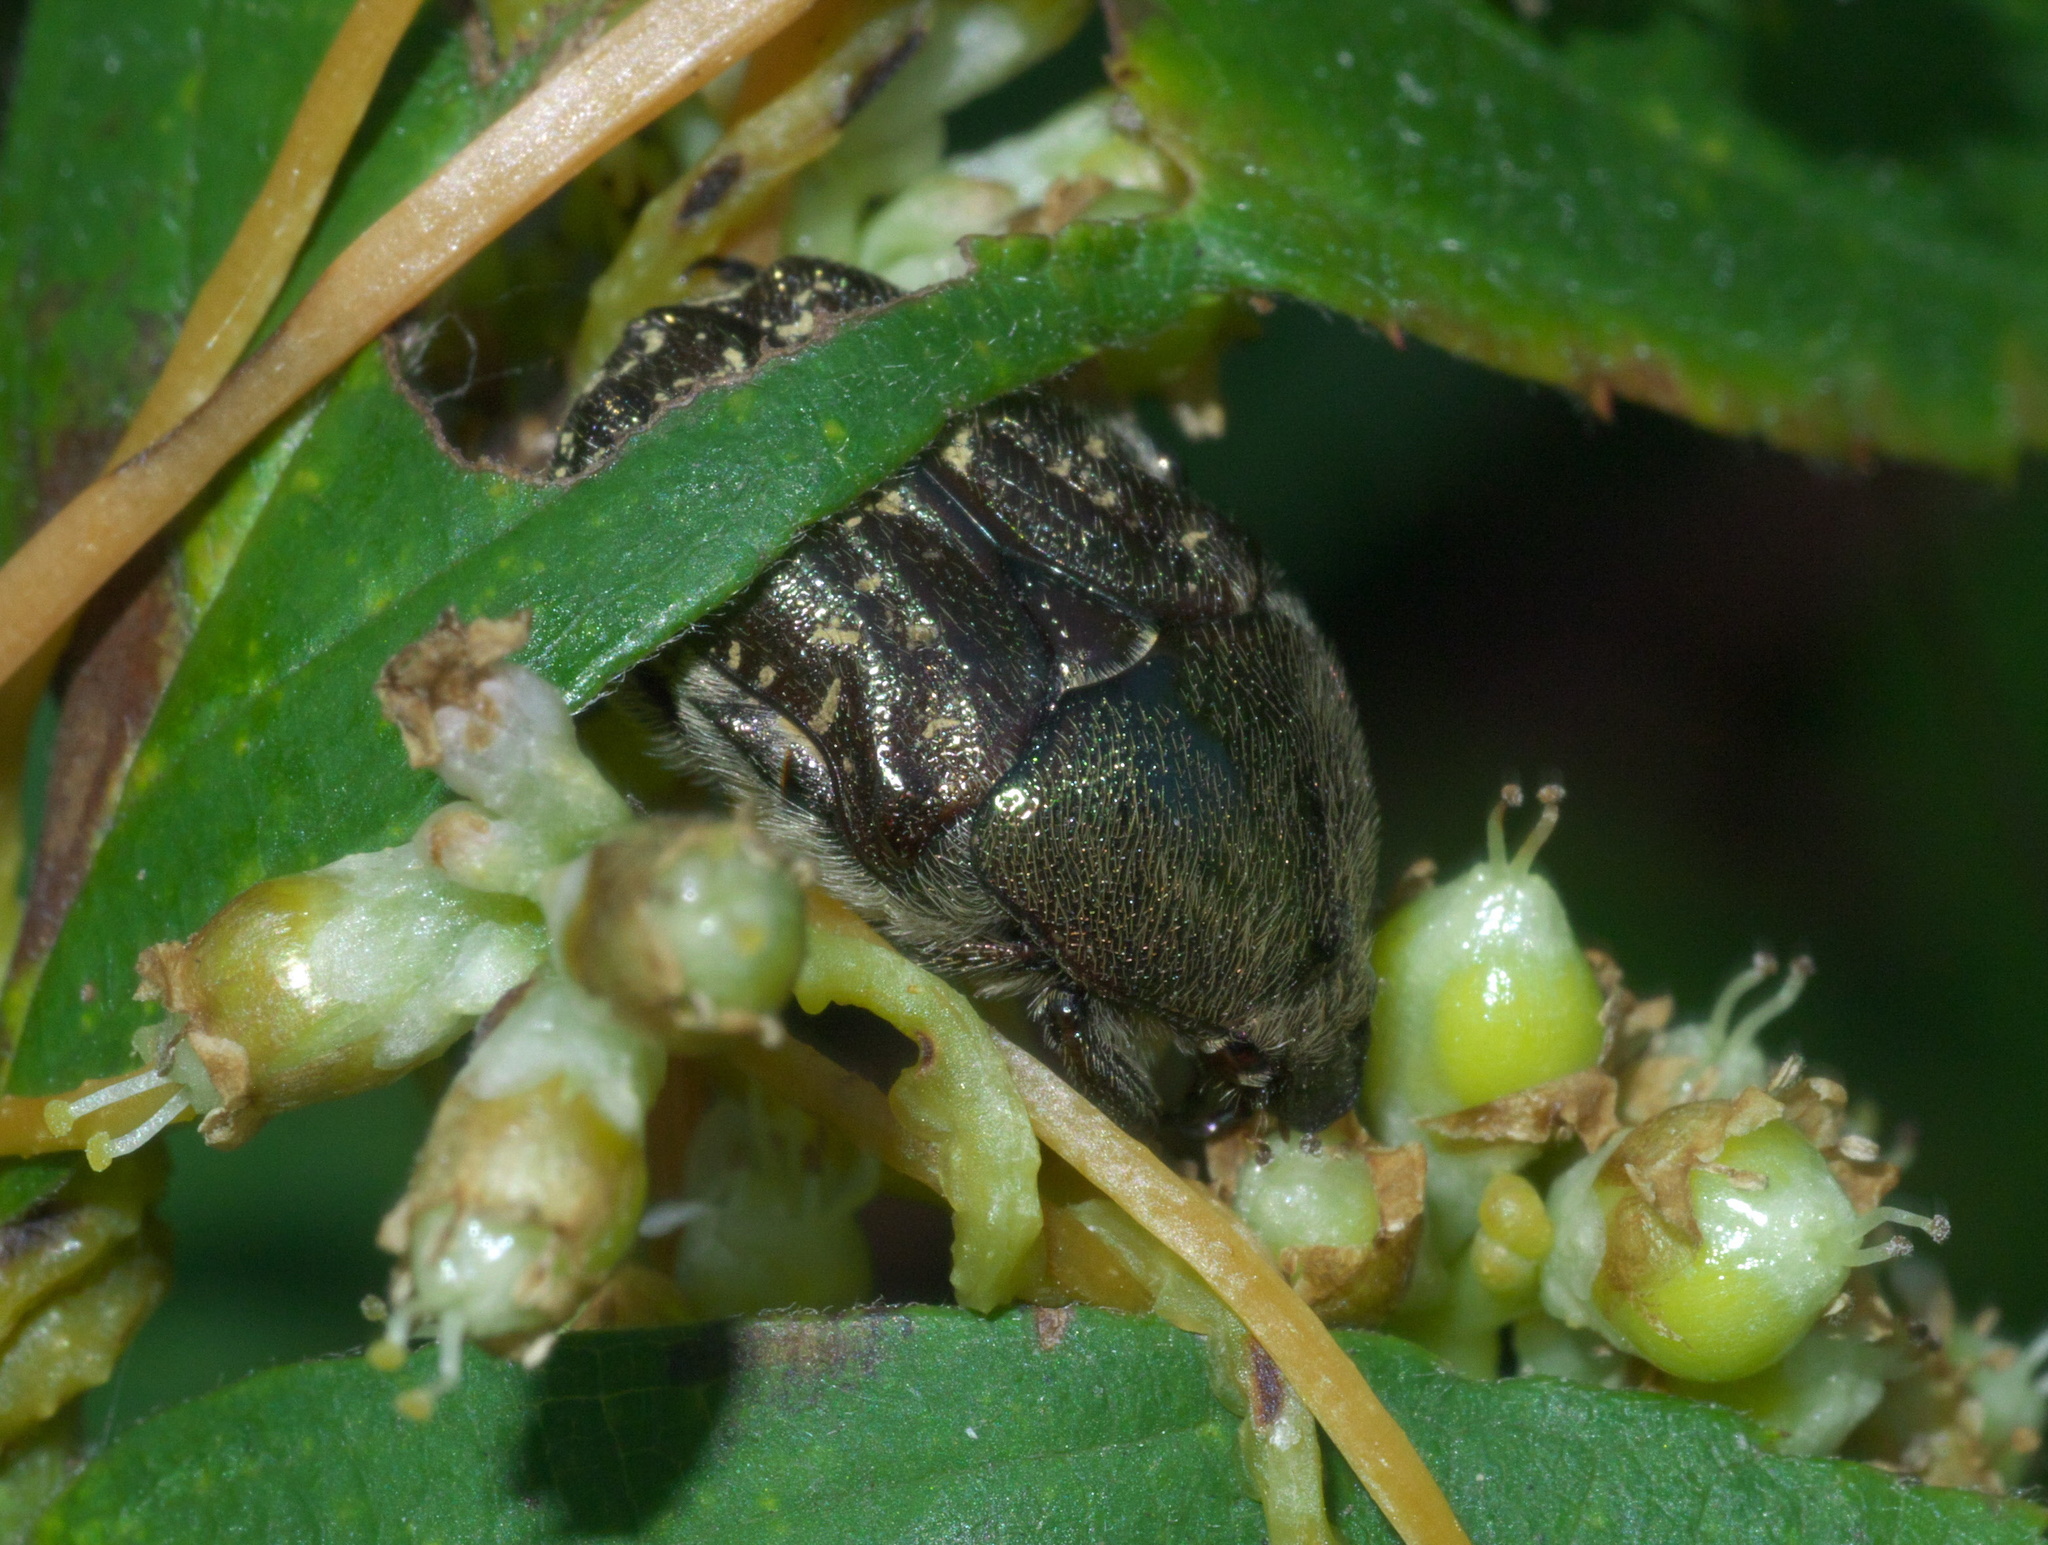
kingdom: Animalia
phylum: Arthropoda
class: Insecta
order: Coleoptera
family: Scarabaeidae
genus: Euphoria
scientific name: Euphoria sepulcralis
